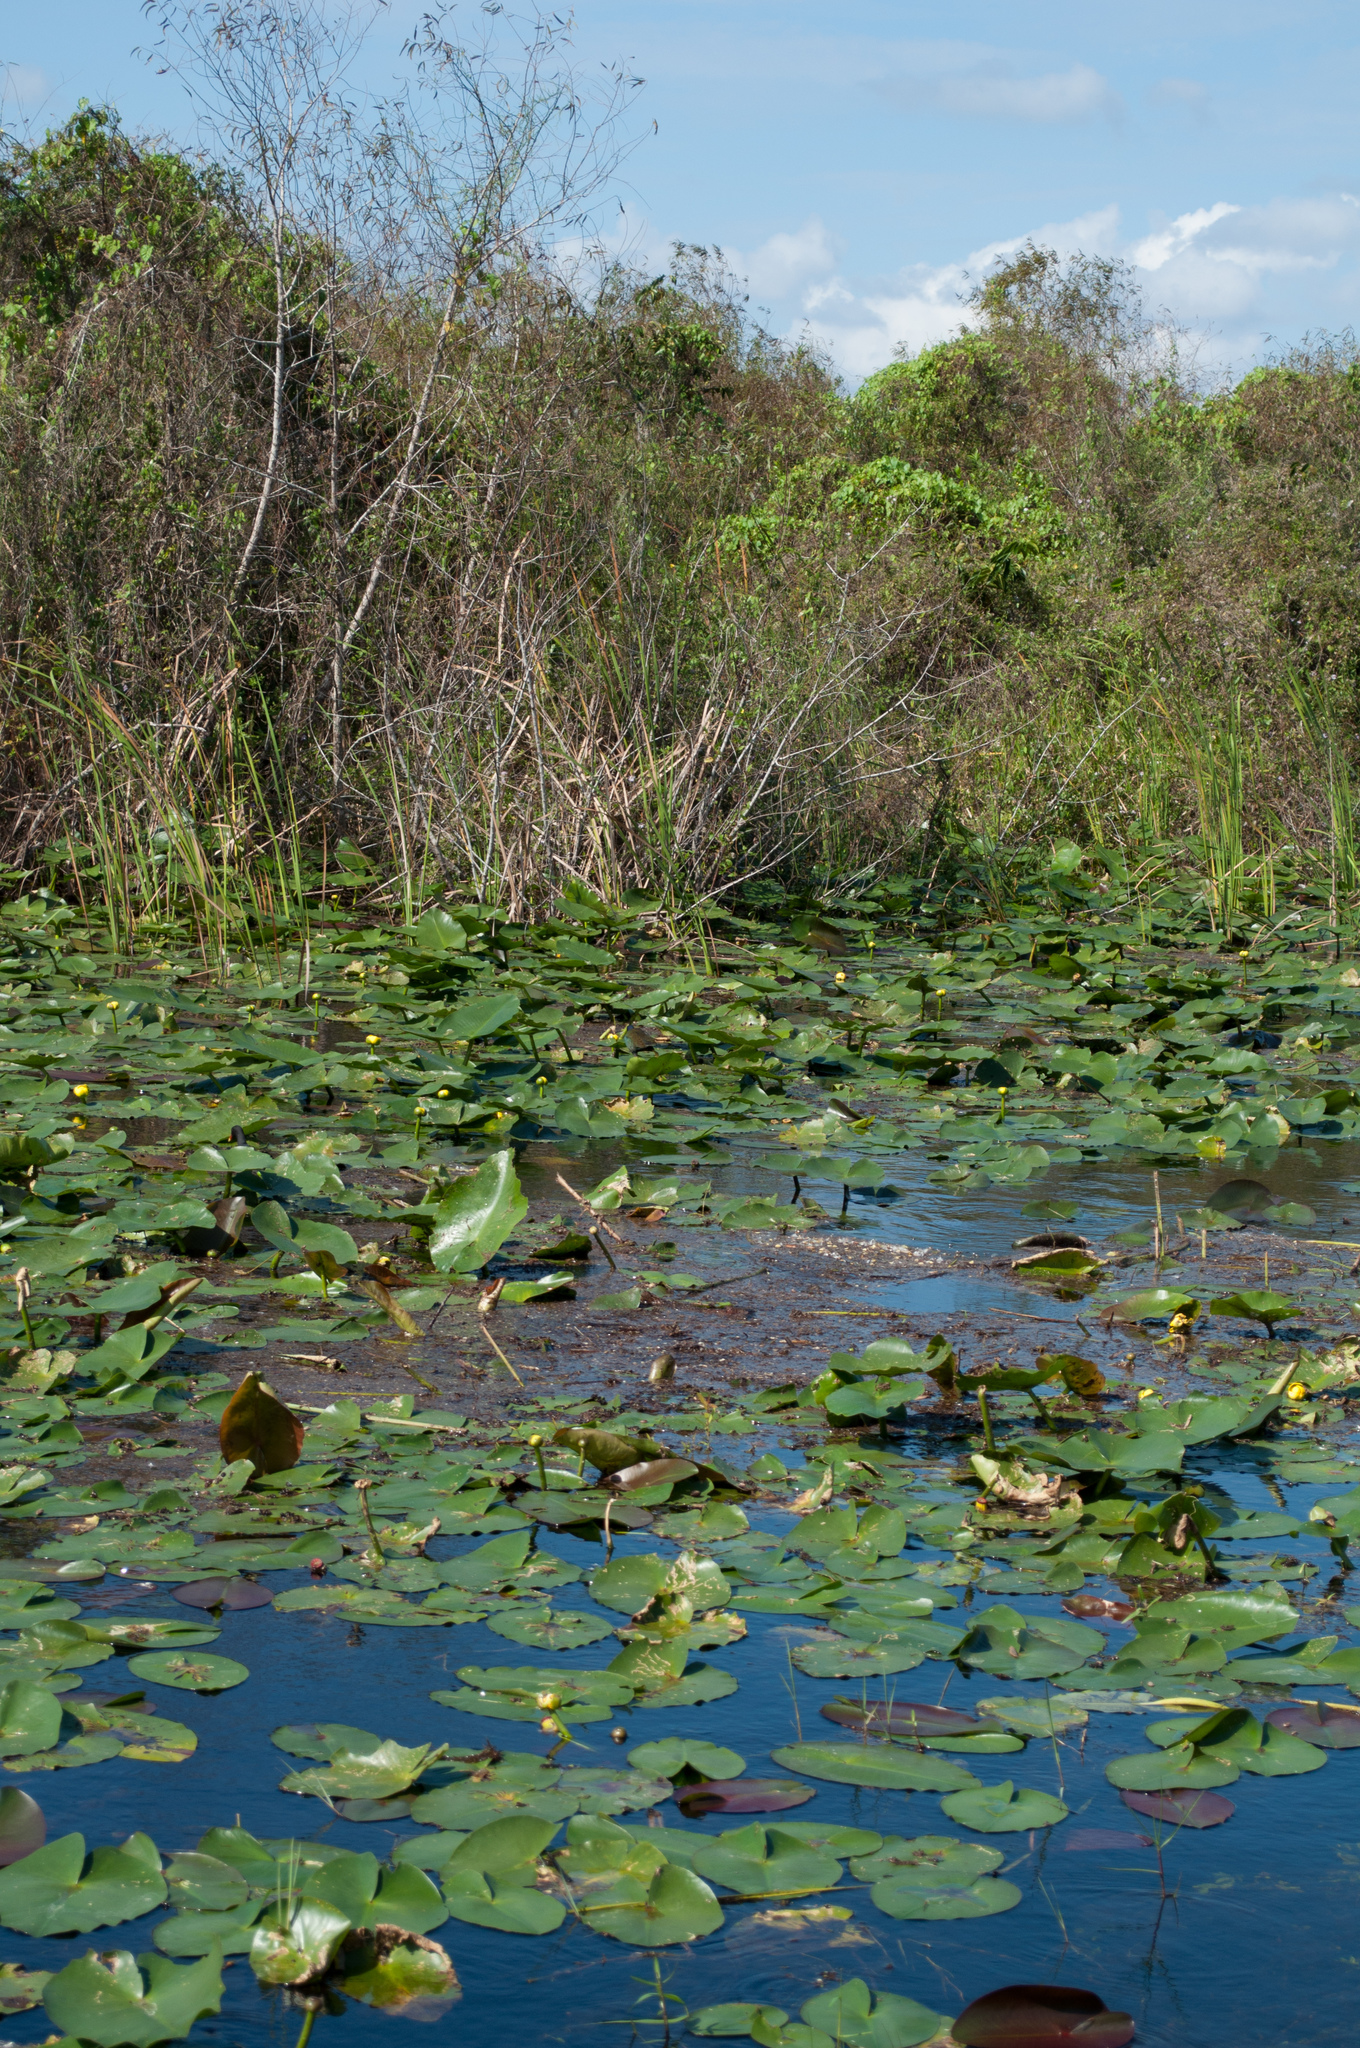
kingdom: Plantae
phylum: Tracheophyta
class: Magnoliopsida
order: Nymphaeales
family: Nymphaeaceae
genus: Nuphar
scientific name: Nuphar advena
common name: Spatter-dock
